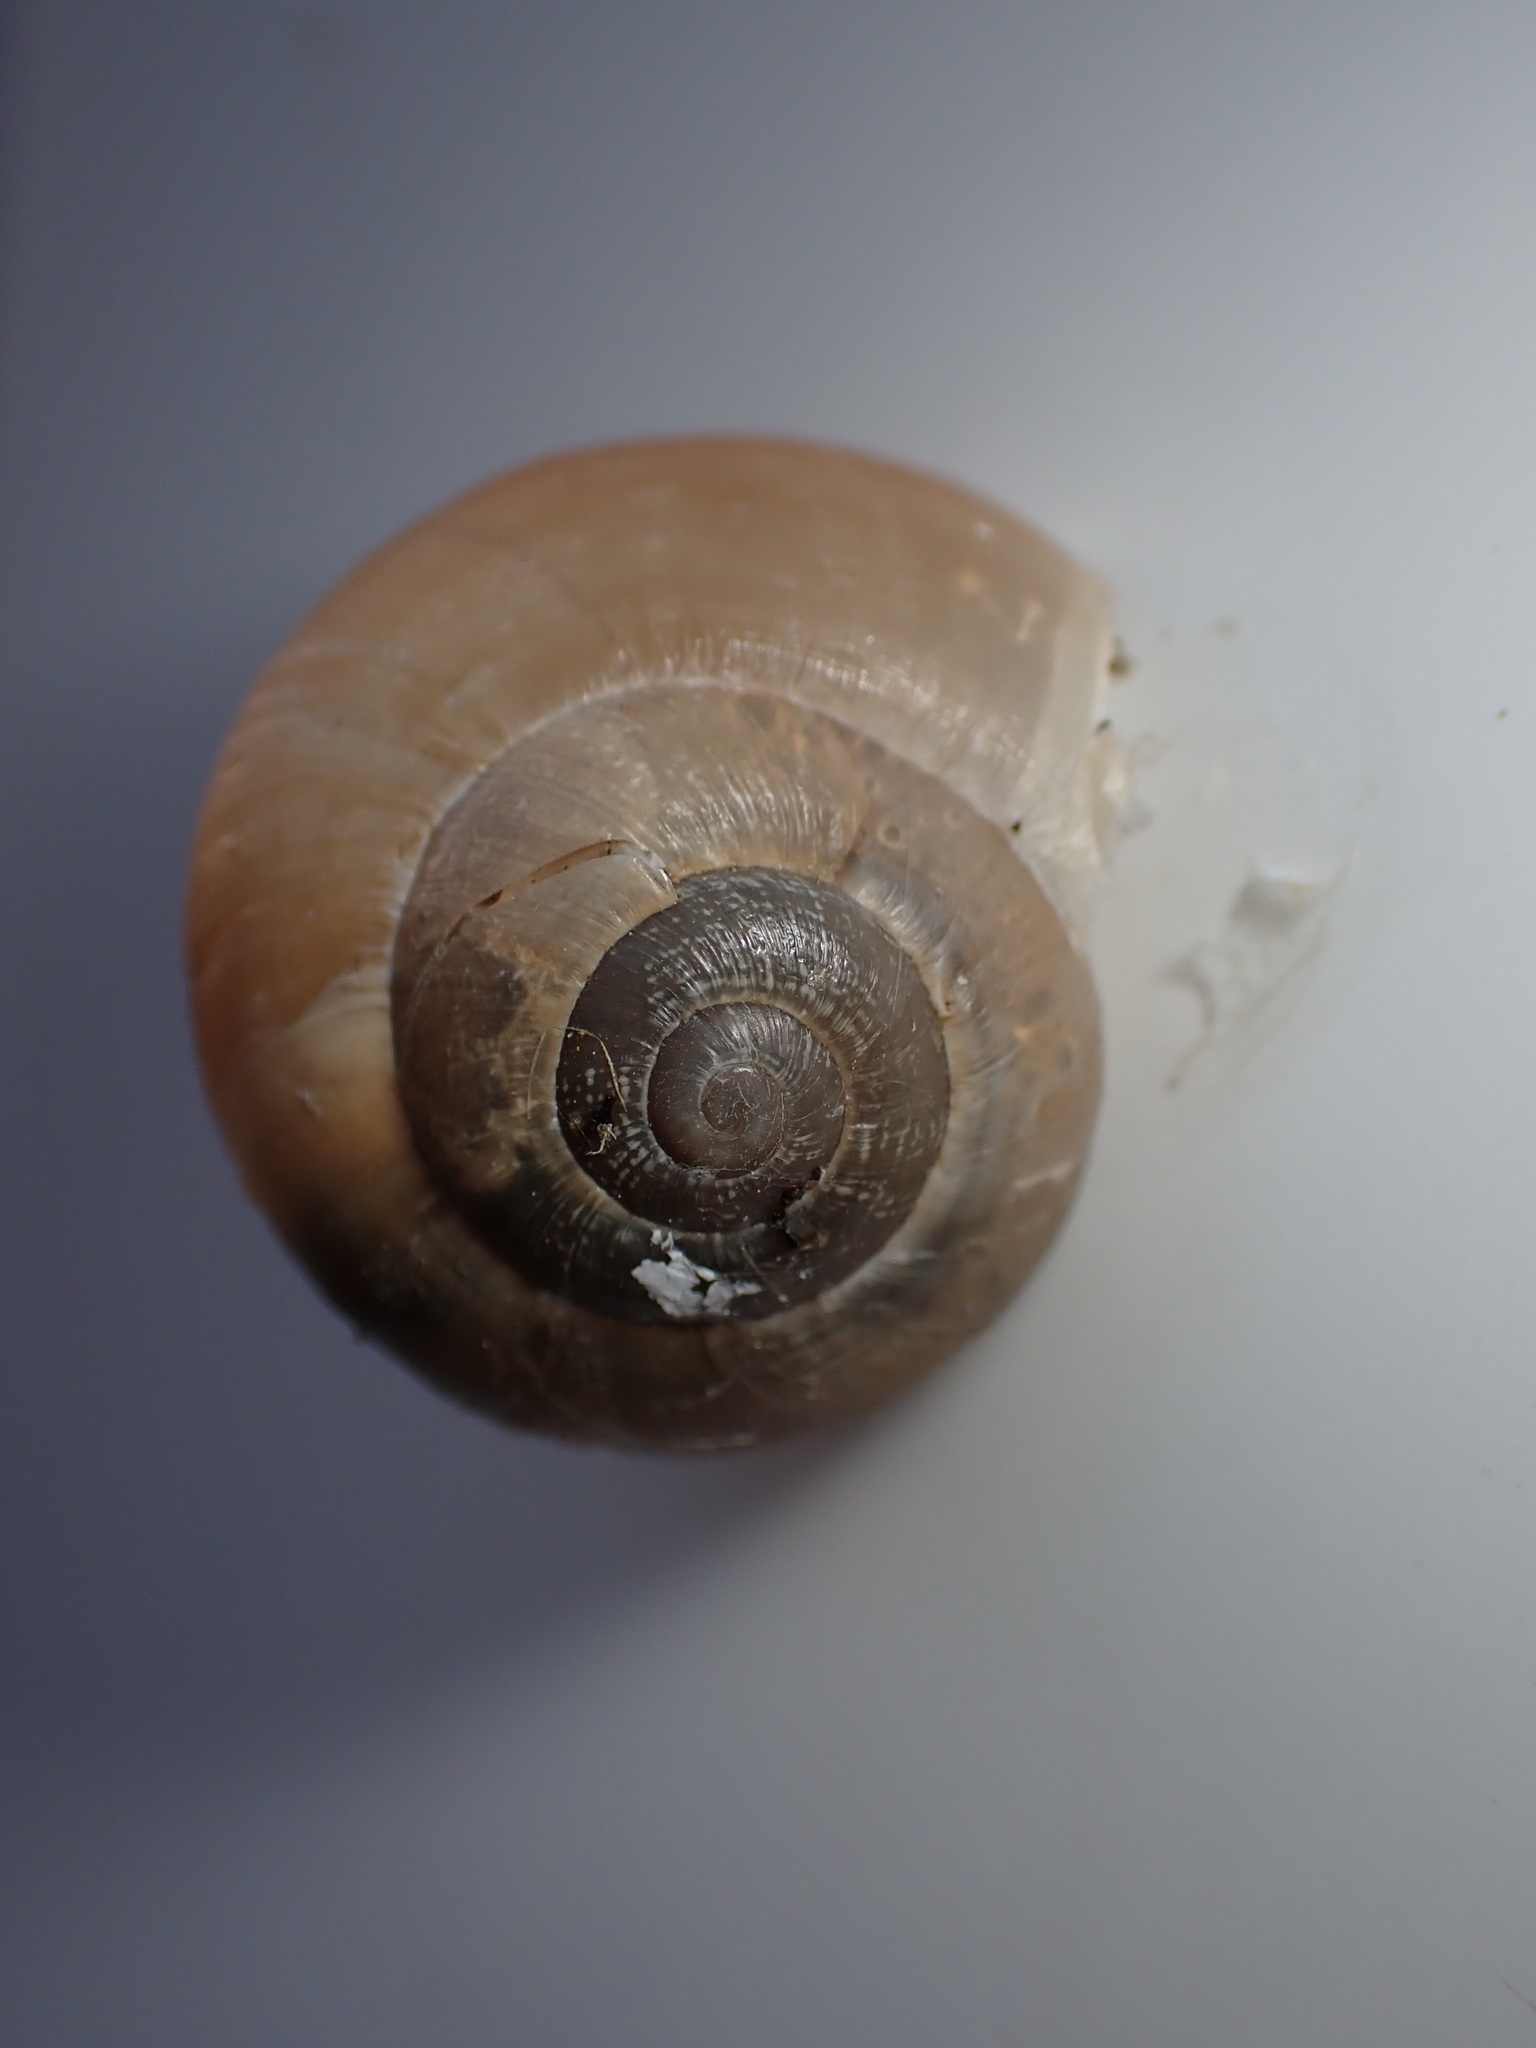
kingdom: Animalia
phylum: Mollusca
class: Gastropoda
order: Stylommatophora
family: Helicidae
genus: Eobania
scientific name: Eobania vermiculata
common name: Chocolateband snail
